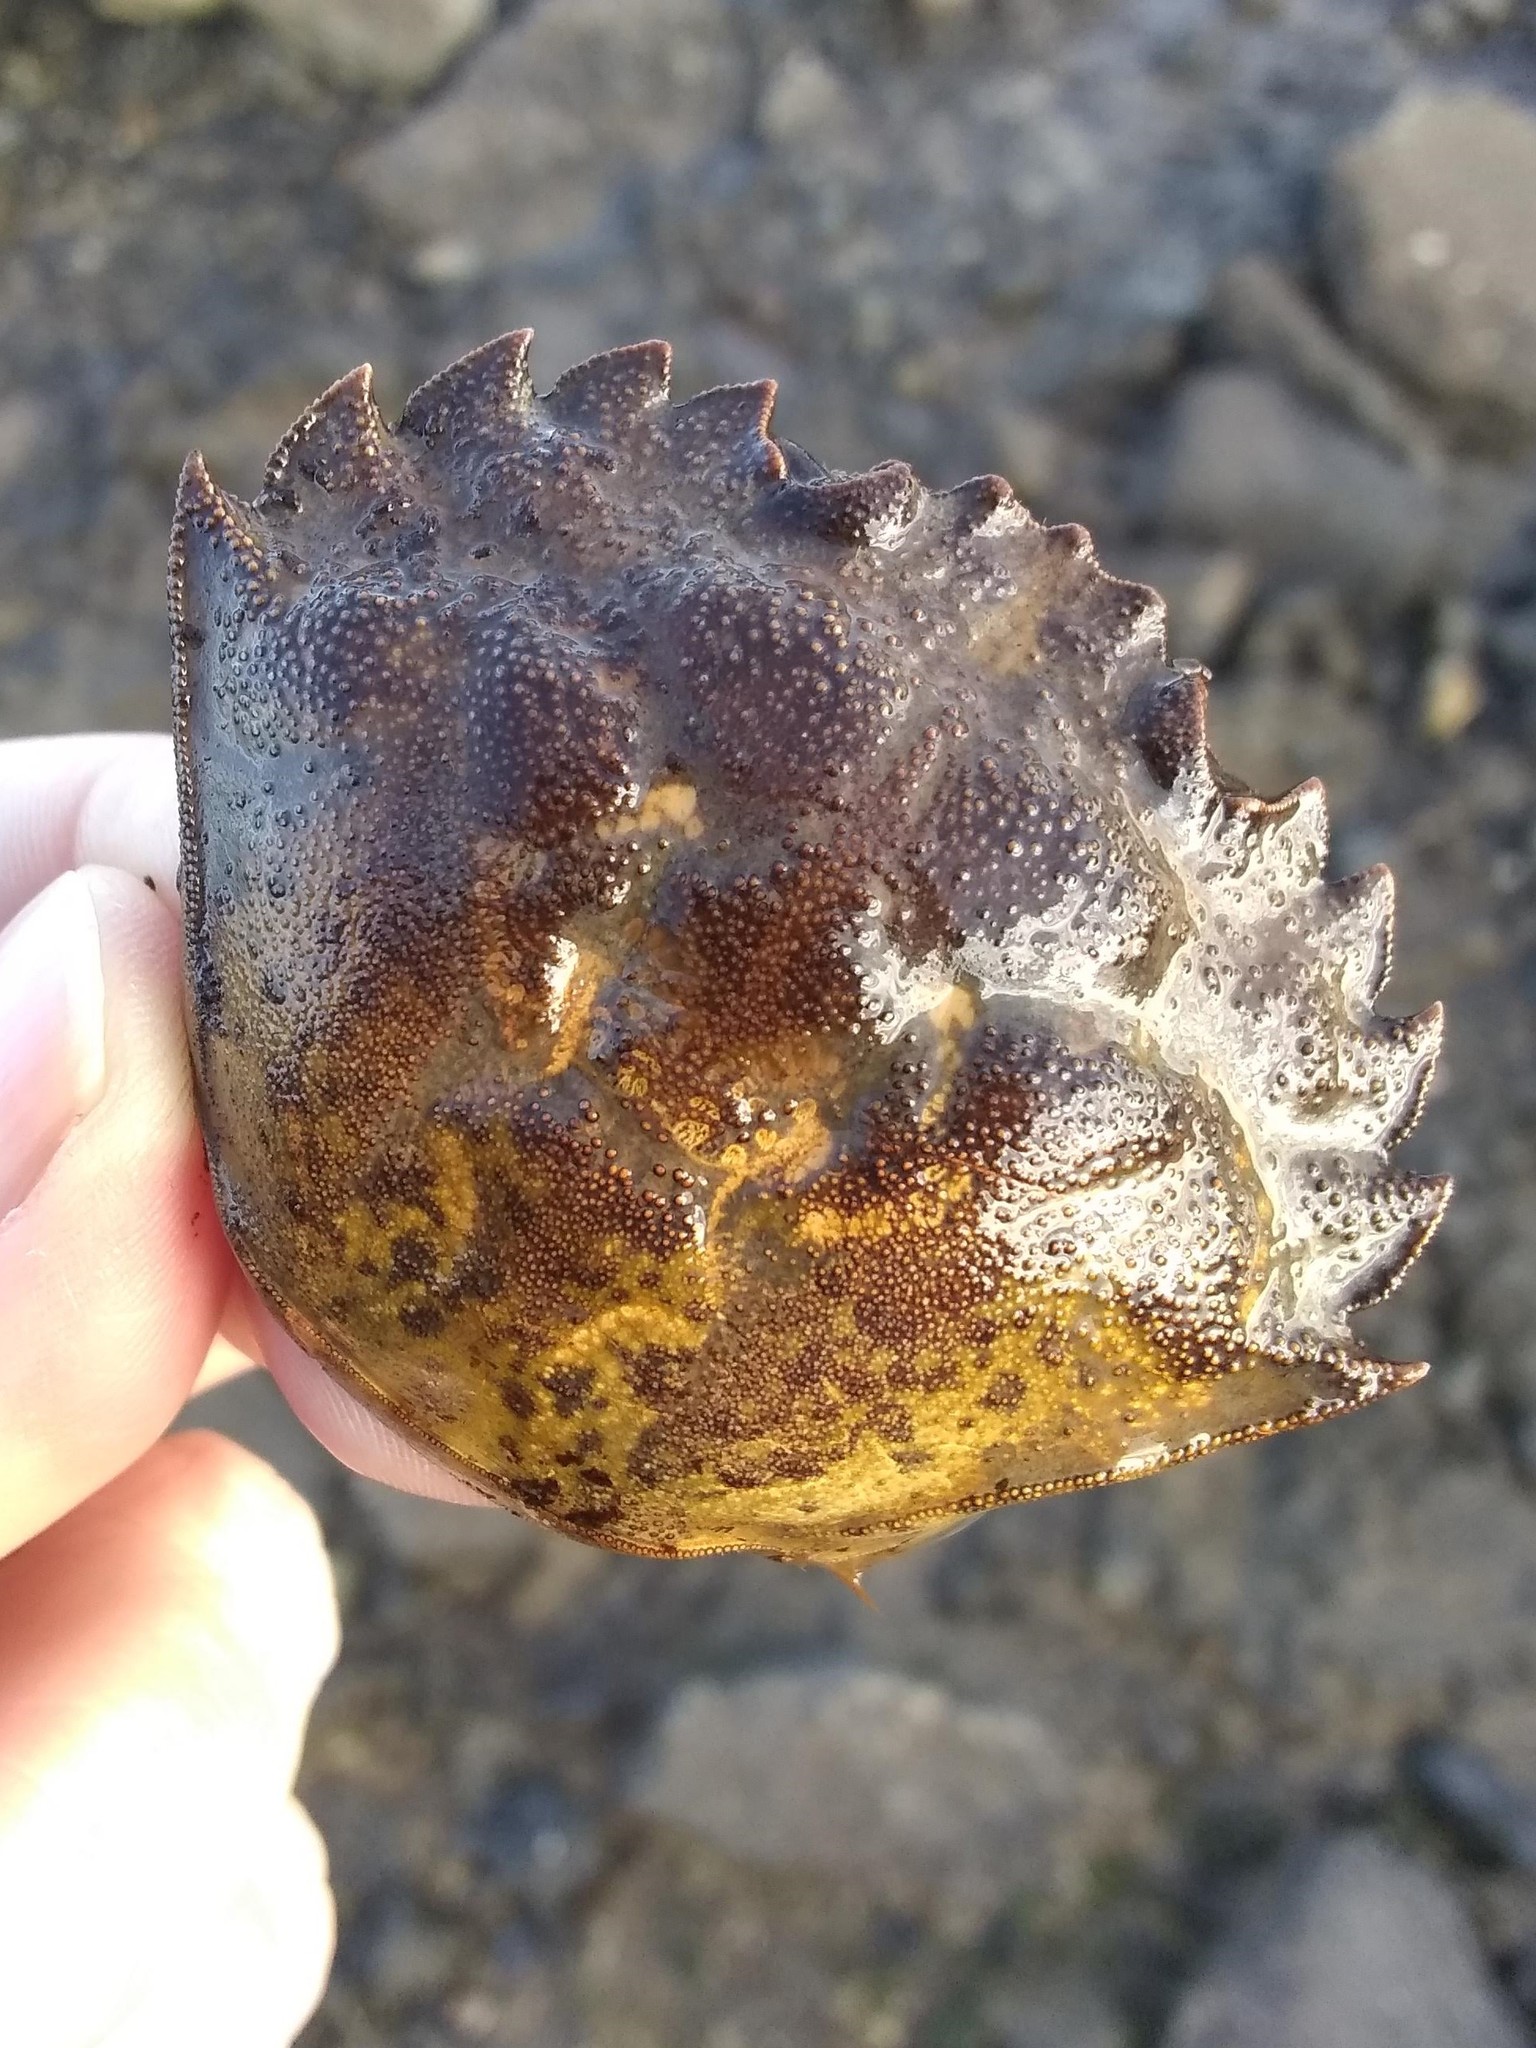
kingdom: Animalia
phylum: Arthropoda
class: Malacostraca
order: Decapoda
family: Carcinidae
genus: Carcinus
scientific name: Carcinus maenas
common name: European green crab
